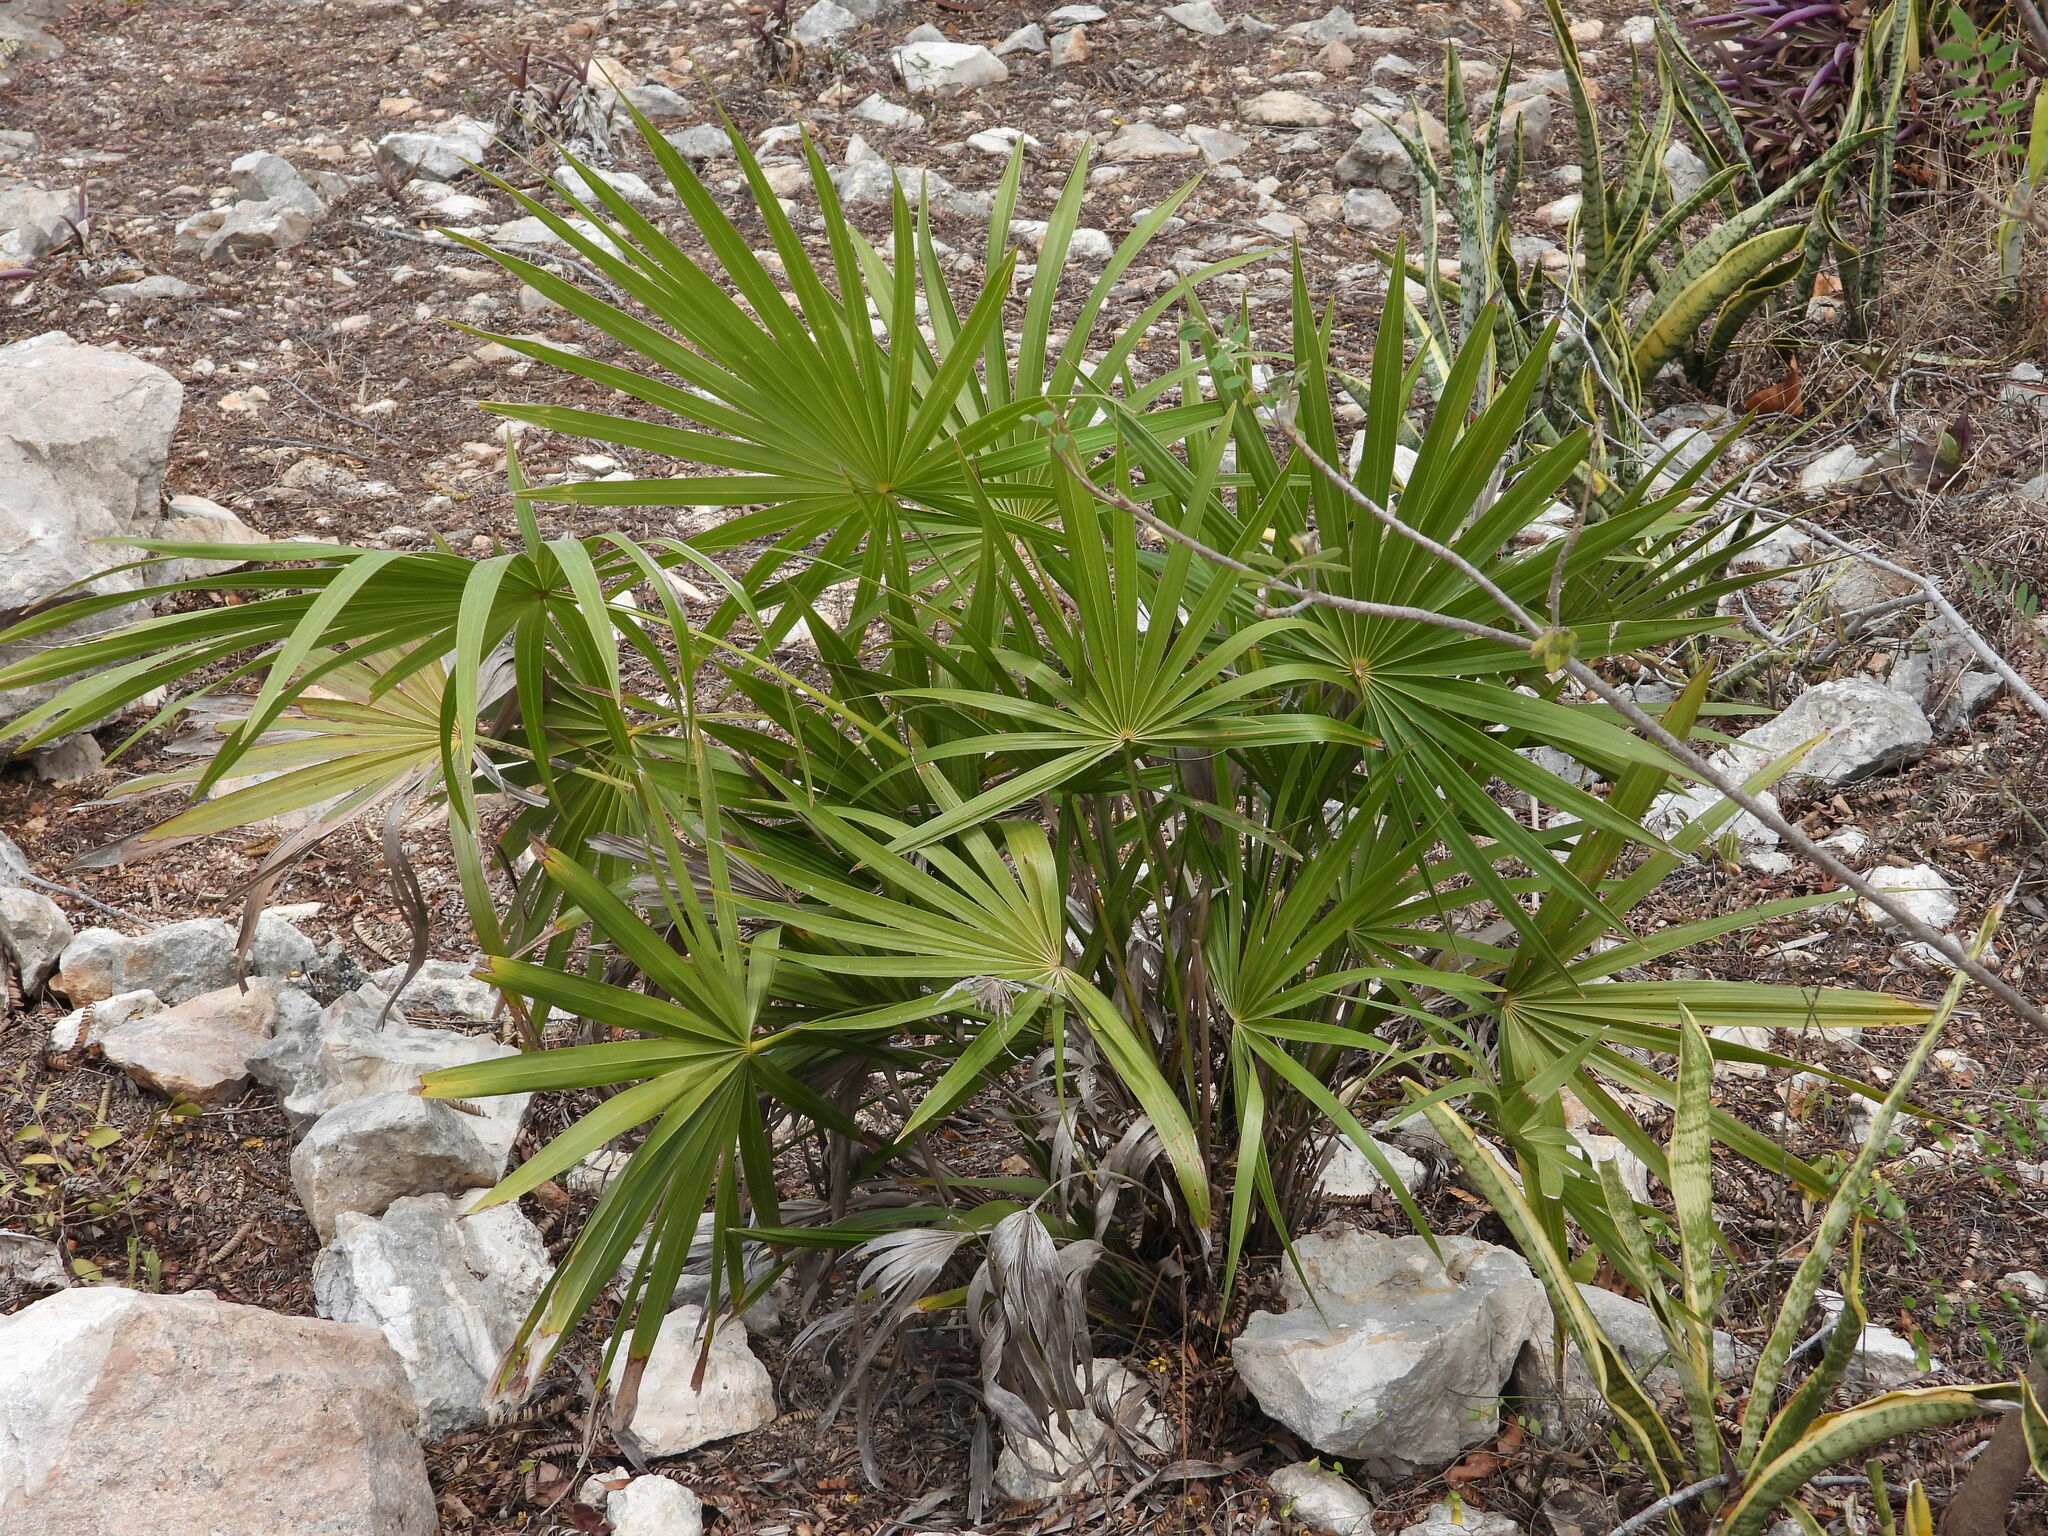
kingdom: Plantae
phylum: Tracheophyta
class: Liliopsida
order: Arecales
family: Arecaceae
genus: Thrinax
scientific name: Thrinax radiata
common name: Florida thatch
